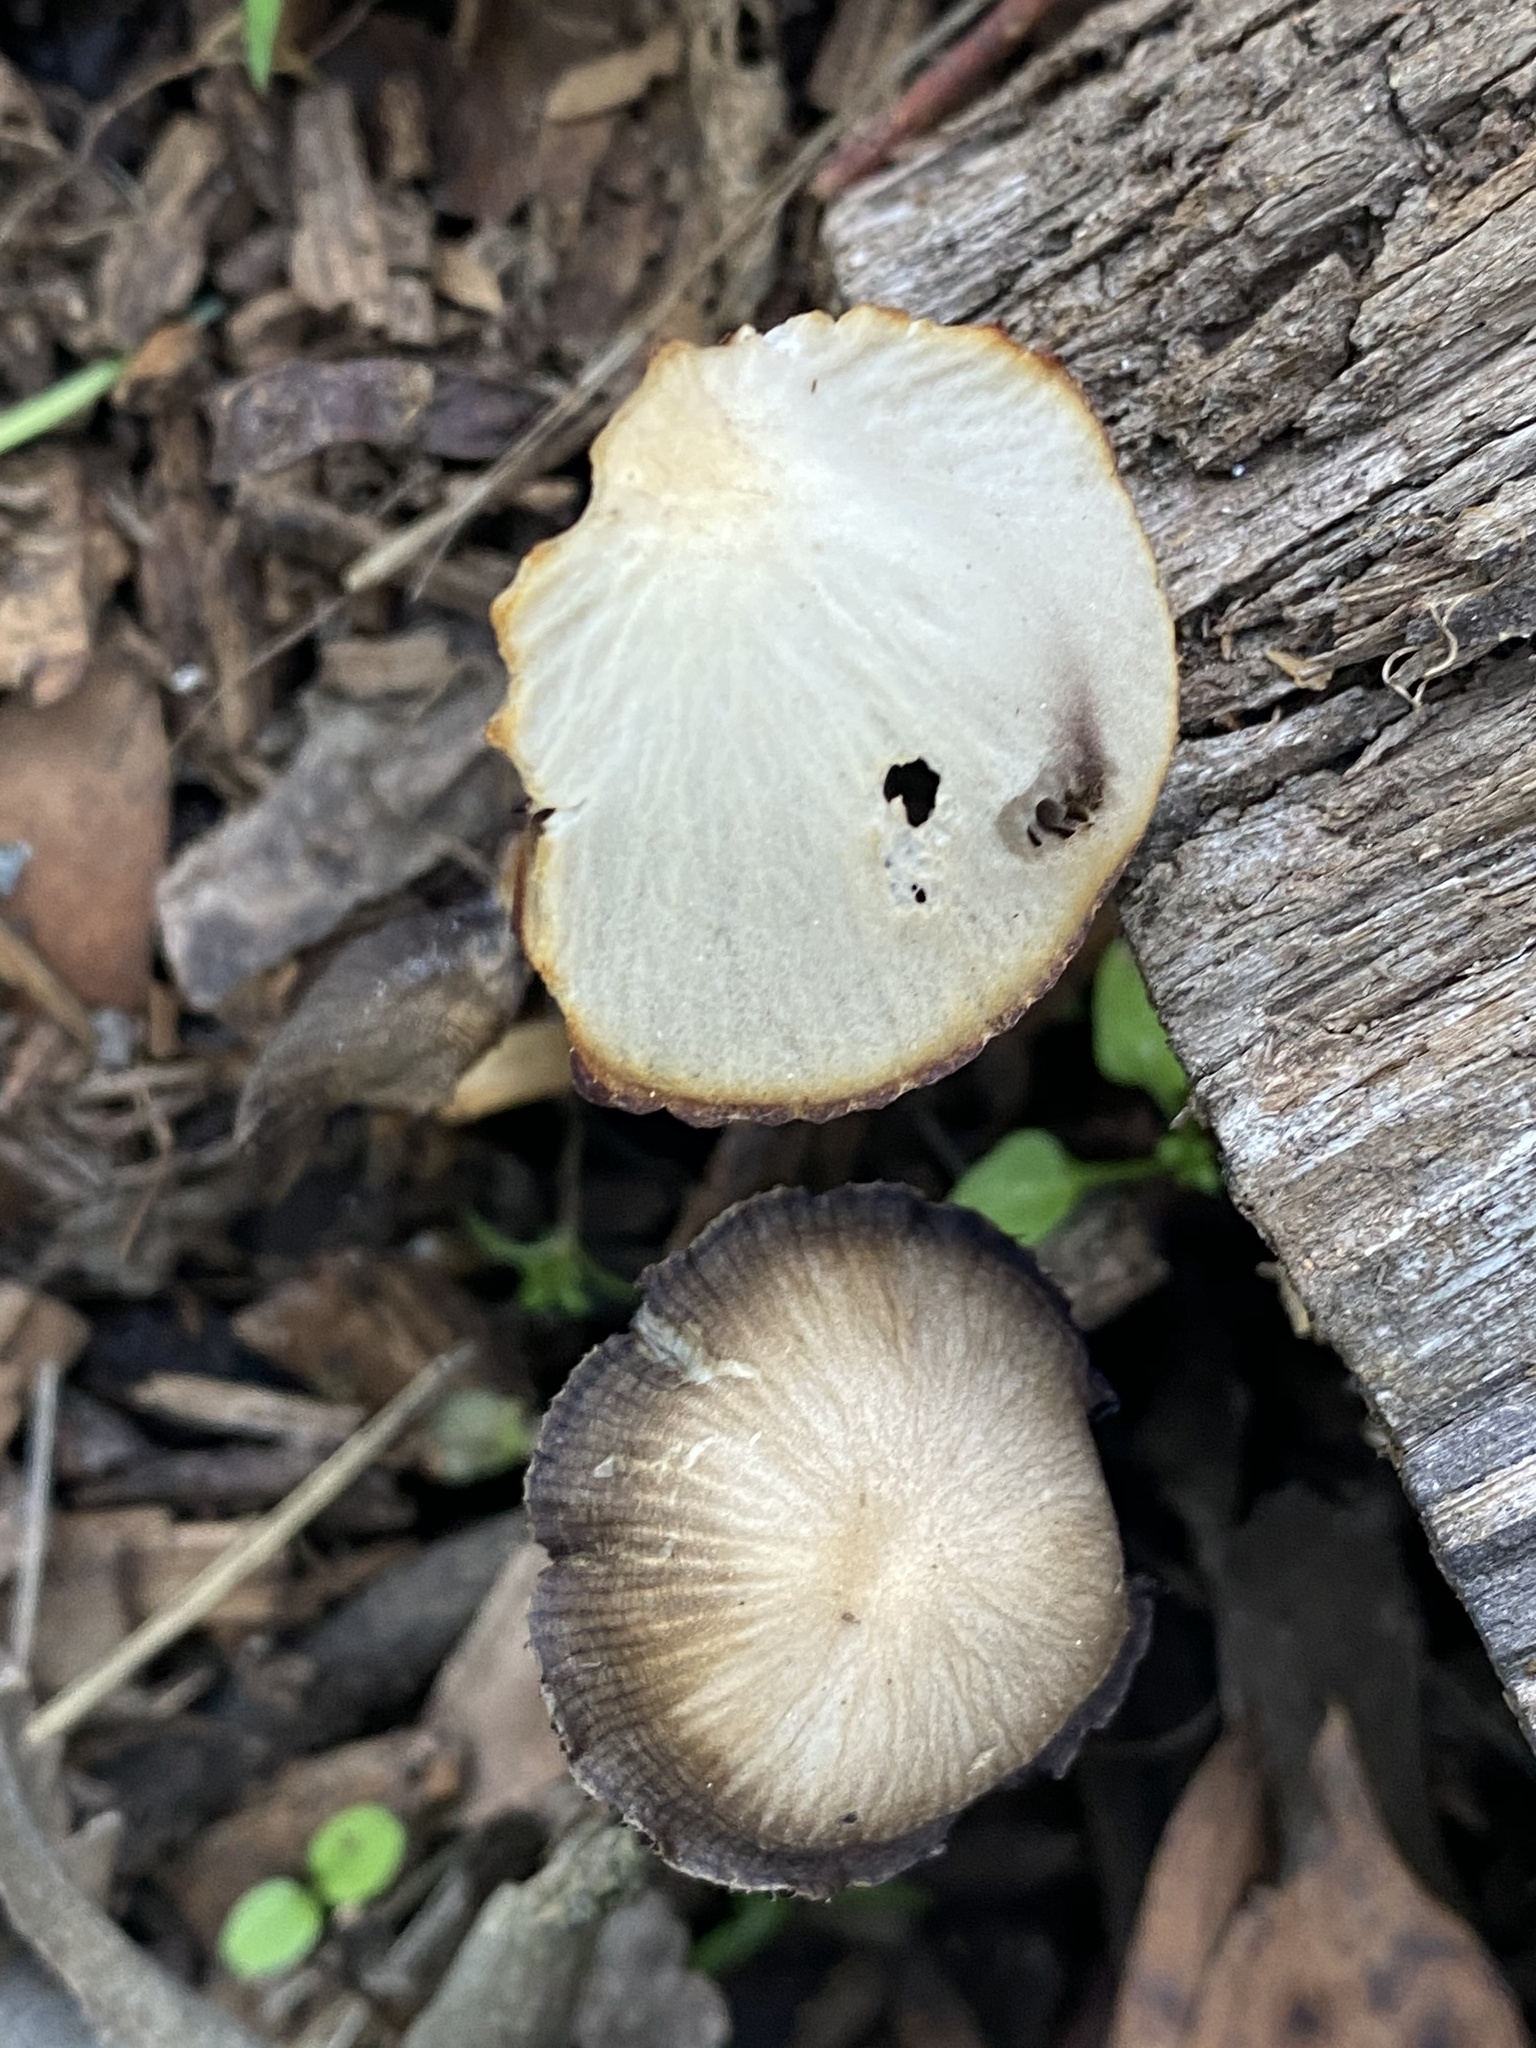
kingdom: Fungi
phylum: Basidiomycota
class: Agaricomycetes
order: Agaricales
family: Psathyrellaceae
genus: Psathyrella
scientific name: Psathyrella longipes
